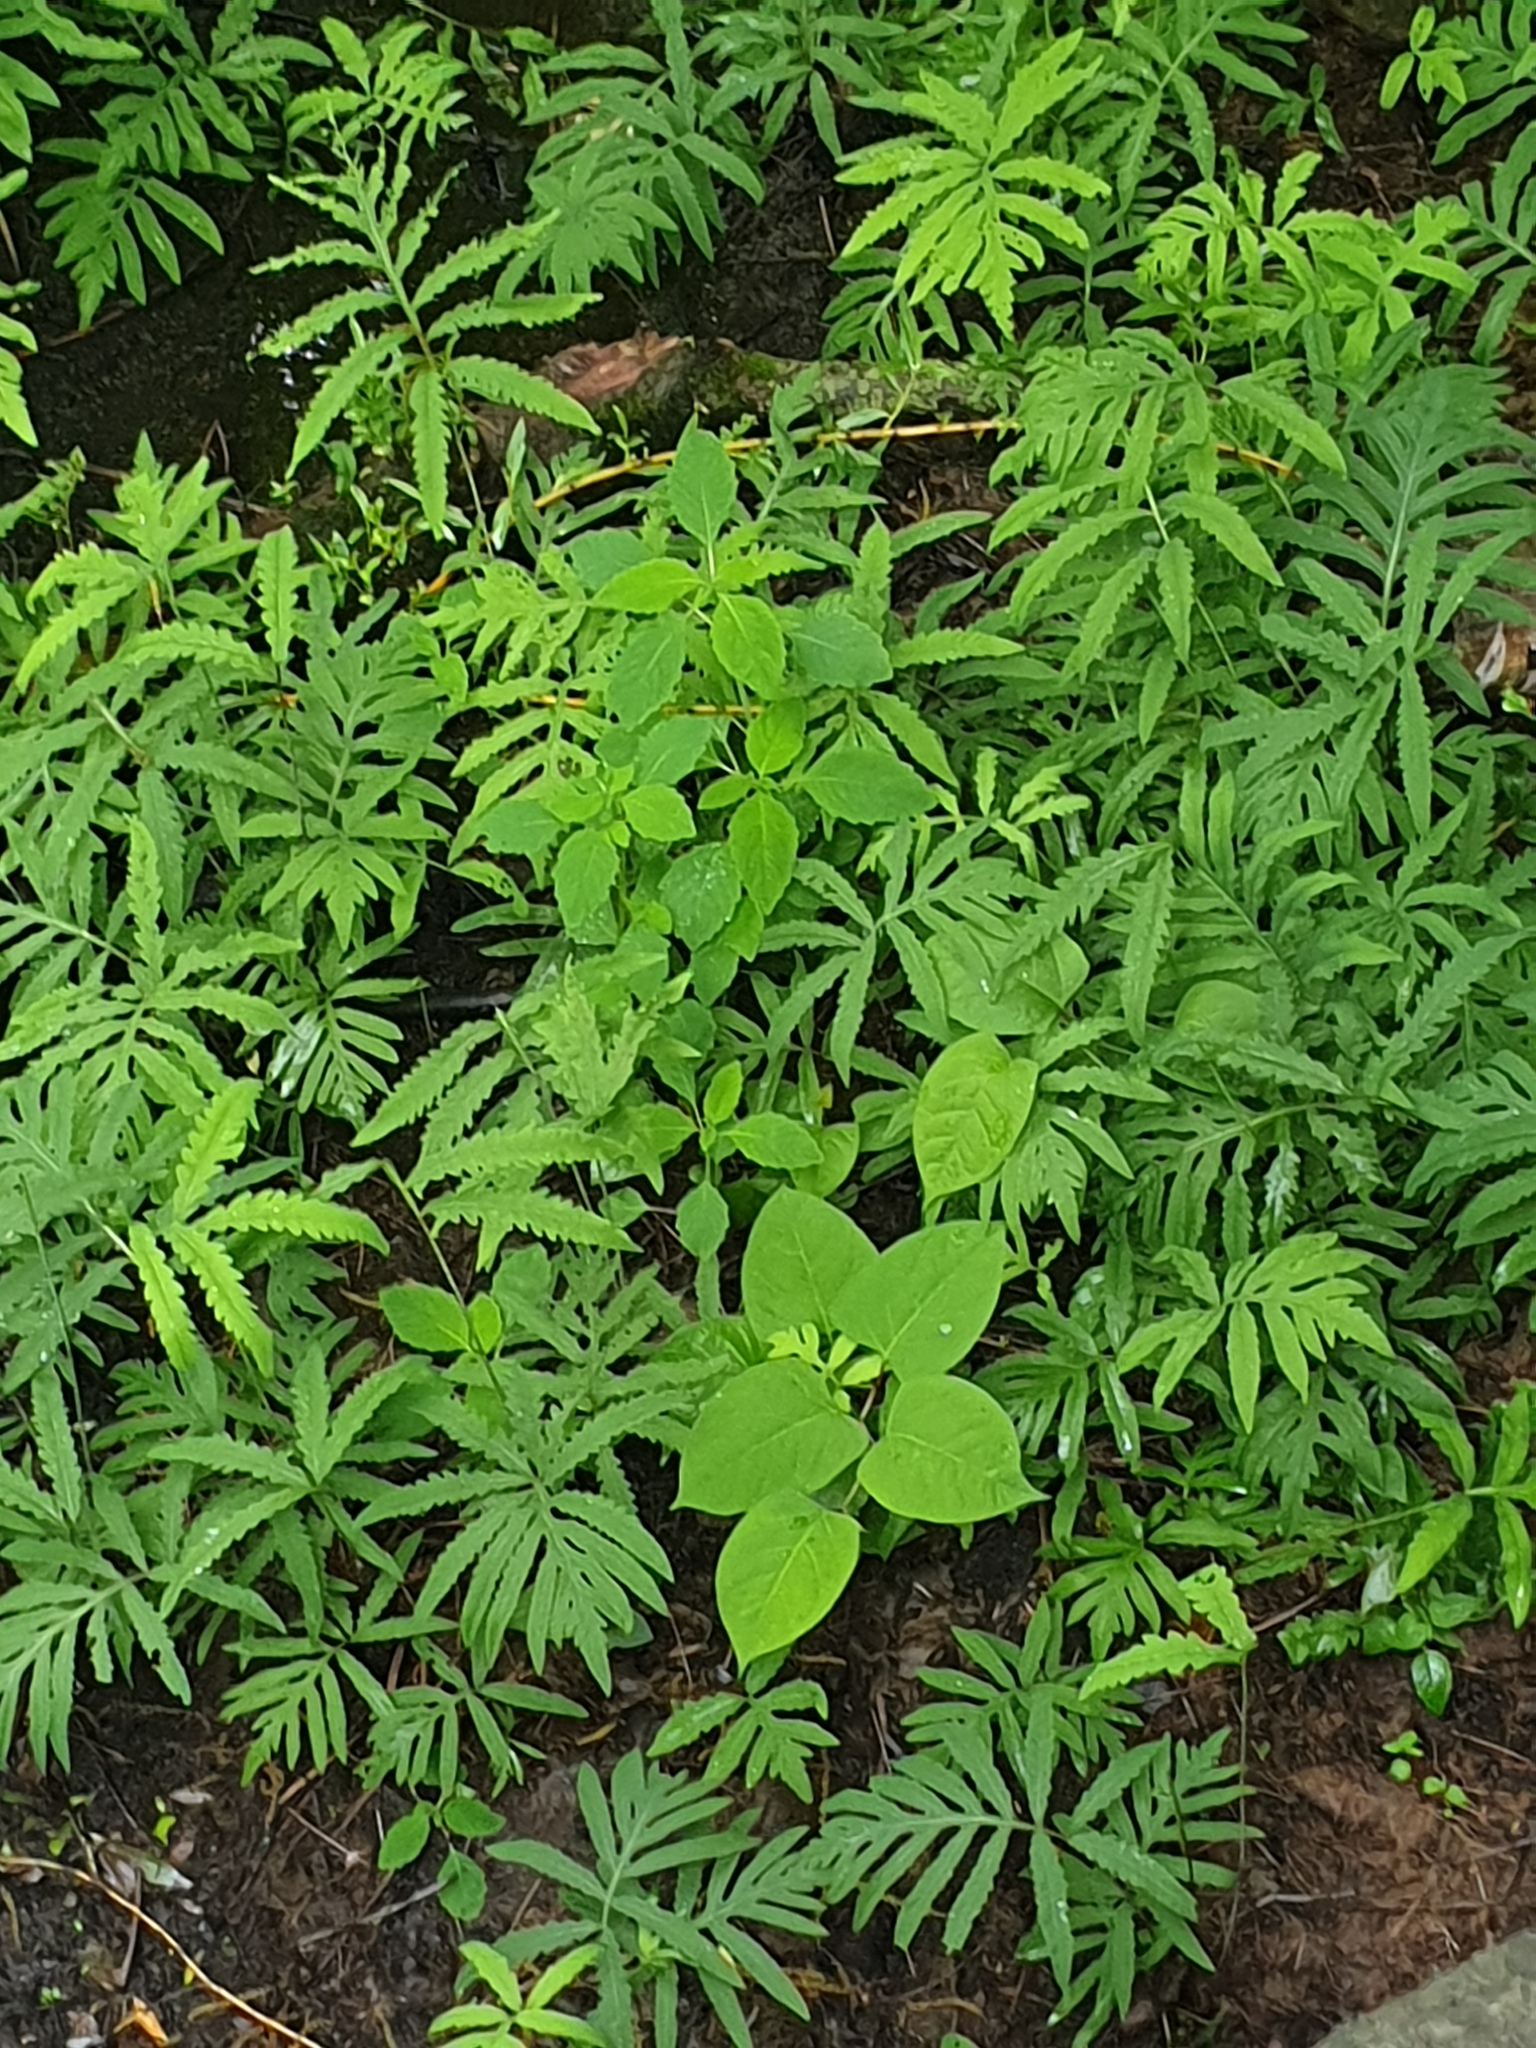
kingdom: Plantae
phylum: Tracheophyta
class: Magnoliopsida
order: Caryophyllales
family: Polygonaceae
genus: Reynoutria
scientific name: Reynoutria japonica
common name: Japanese knotweed
